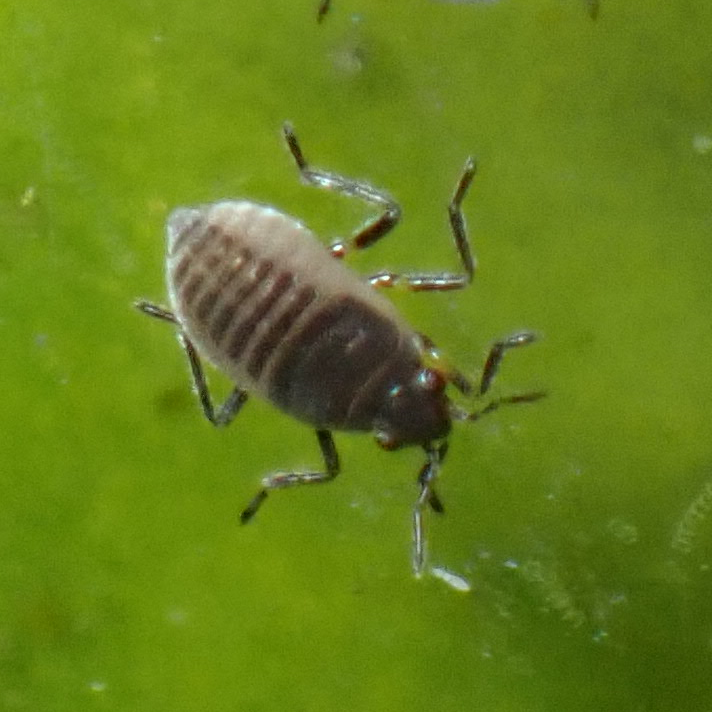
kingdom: Animalia
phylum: Arthropoda
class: Insecta
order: Hemiptera
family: Veliidae
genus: Microvelia
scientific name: Microvelia pulchella
